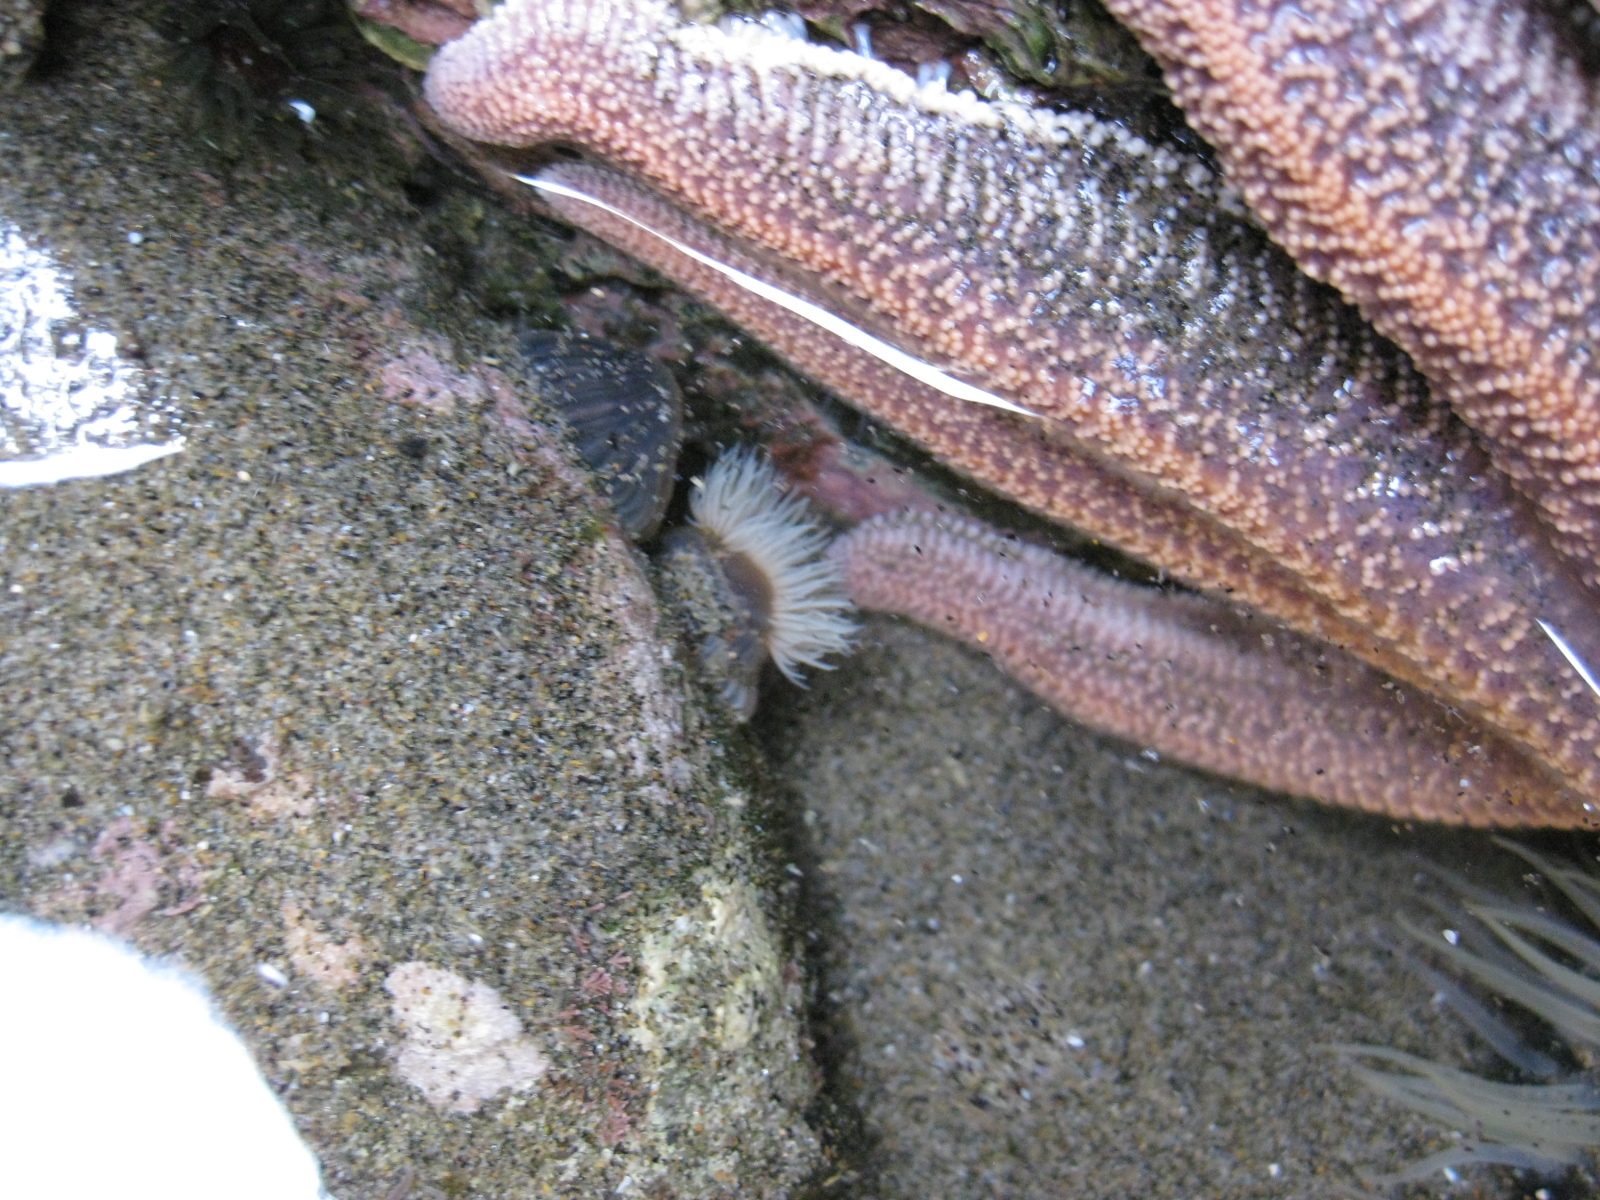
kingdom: Animalia
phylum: Cnidaria
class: Anthozoa
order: Actiniaria
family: Diadumenidae
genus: Diadumene
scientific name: Diadumene neozelanica
